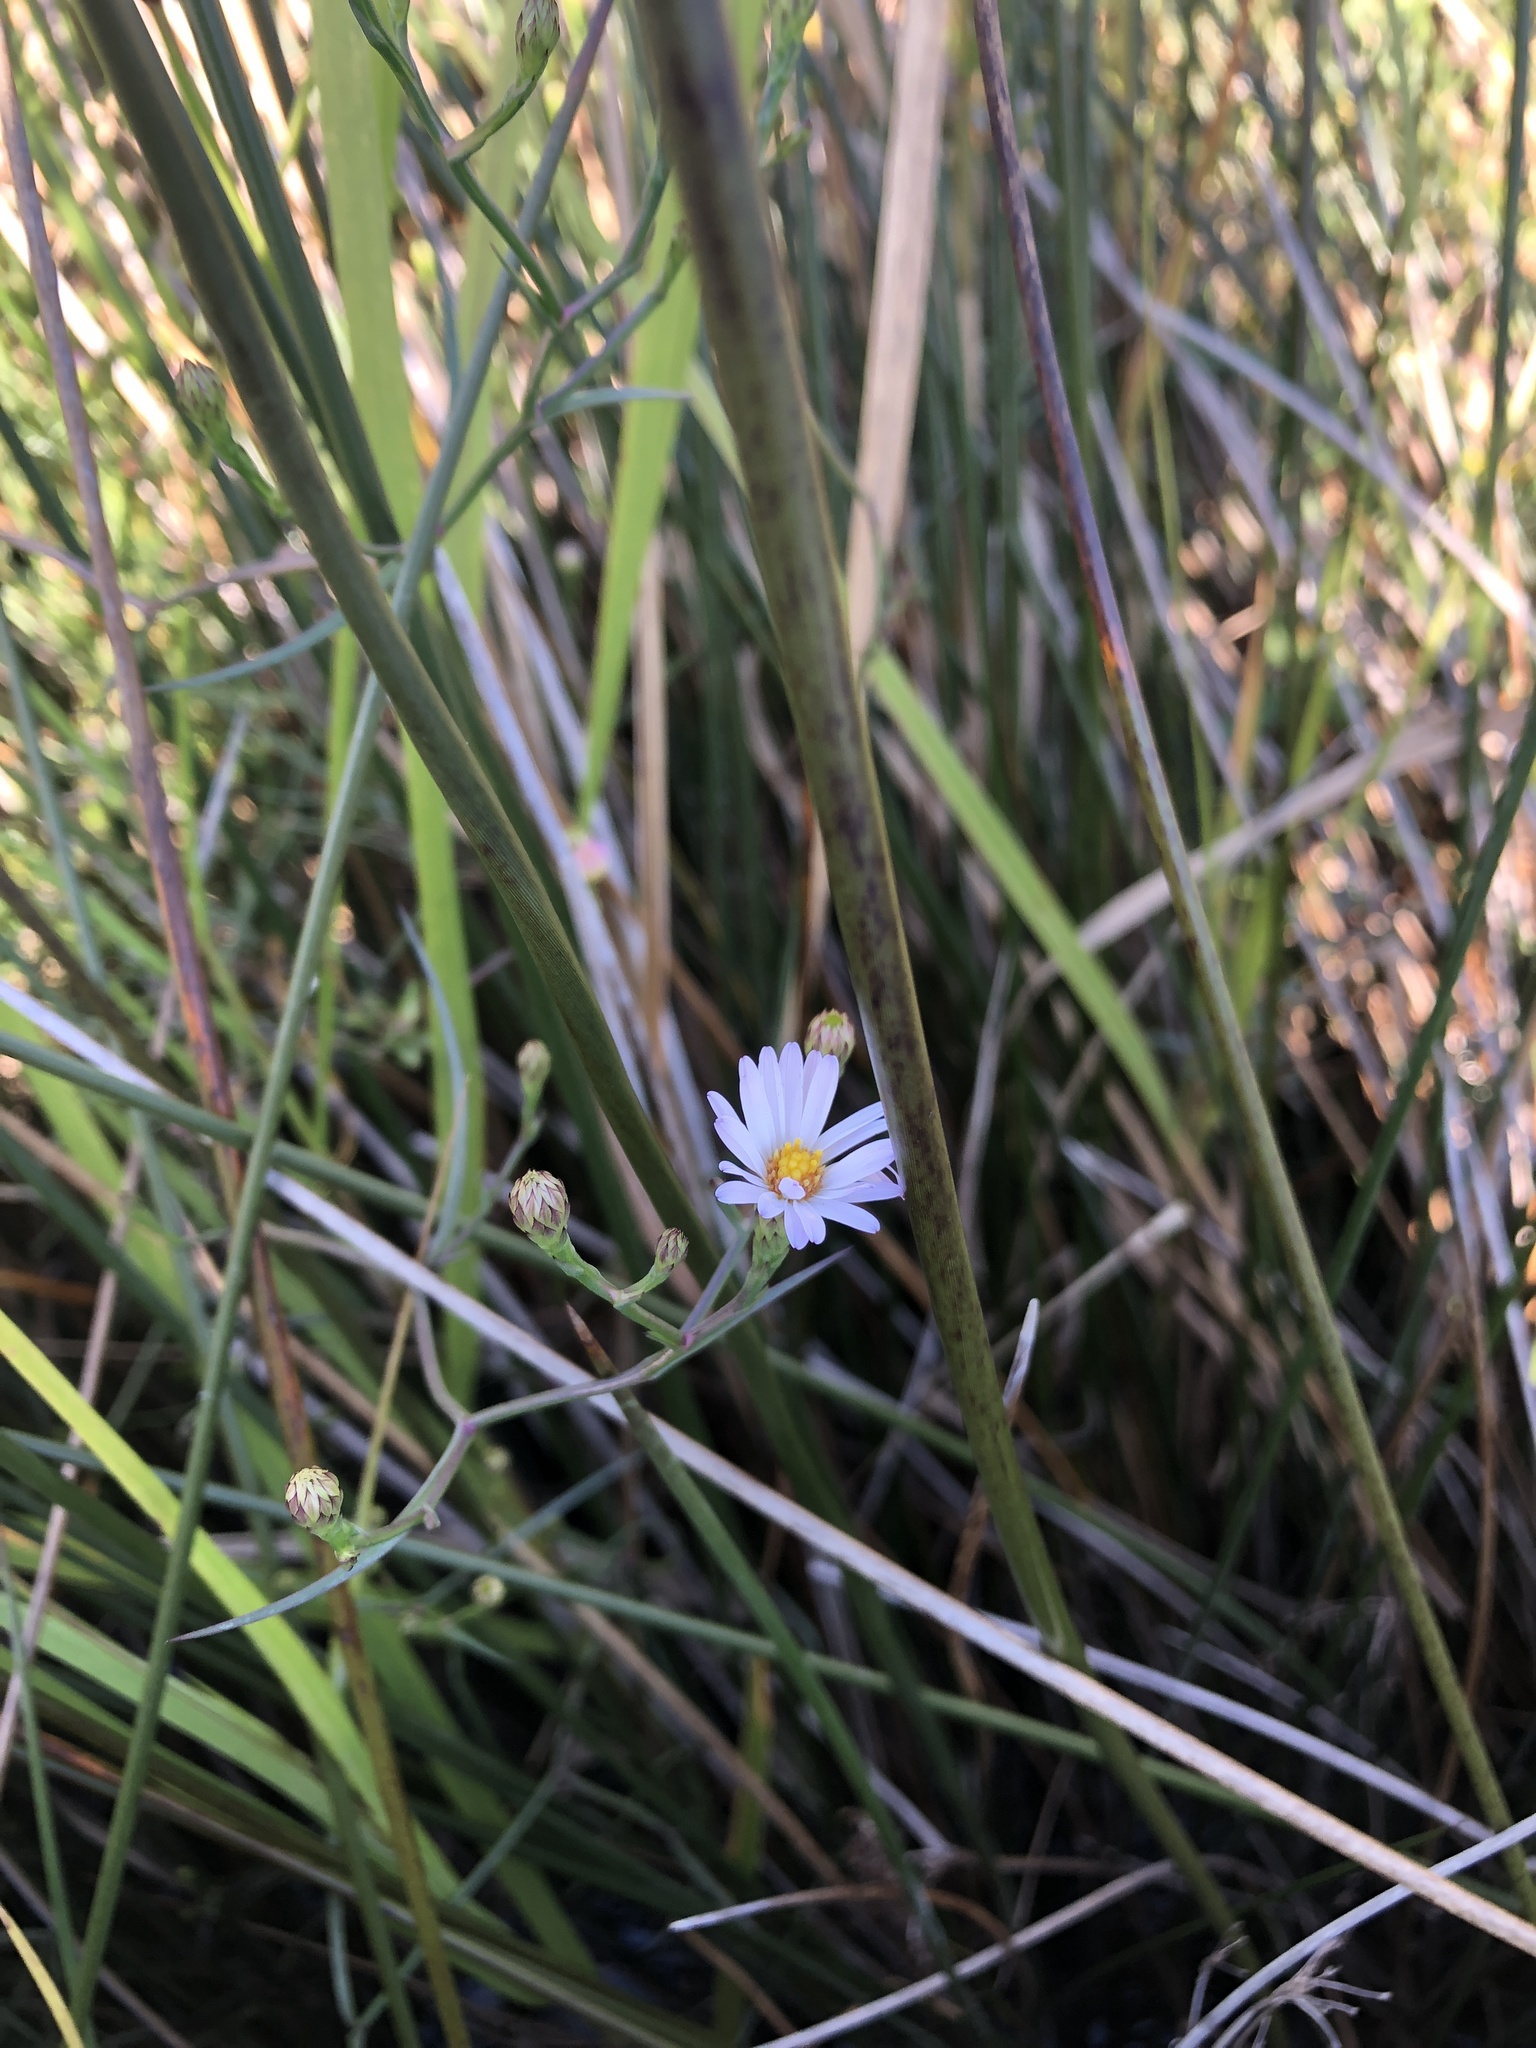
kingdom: Plantae
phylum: Tracheophyta
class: Magnoliopsida
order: Asterales
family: Asteraceae
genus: Symphyotrichum
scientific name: Symphyotrichum tenuifolium
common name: Perennial salt-marsh aster
